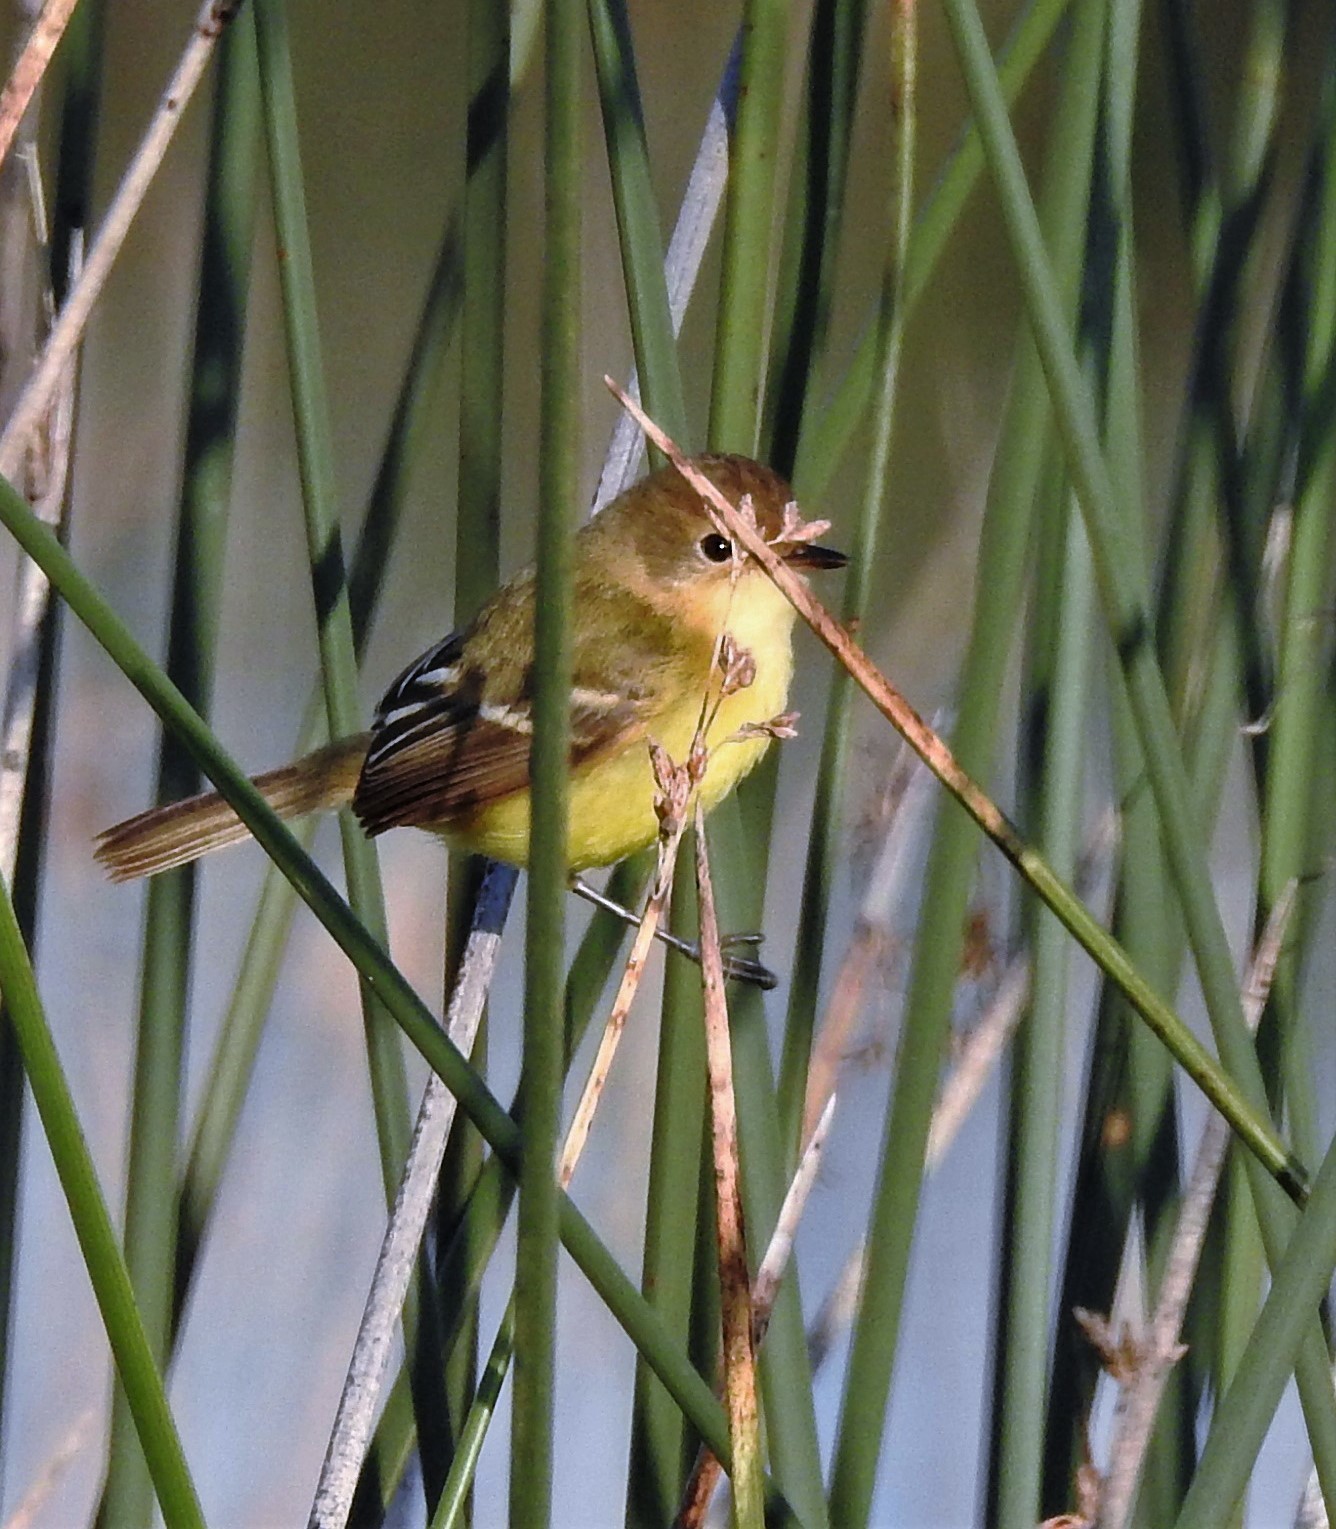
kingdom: Animalia
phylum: Chordata
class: Aves
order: Passeriformes
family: Tyrannidae
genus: Pseudocolopteryx
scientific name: Pseudocolopteryx flaviventris
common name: Warbling doradito
